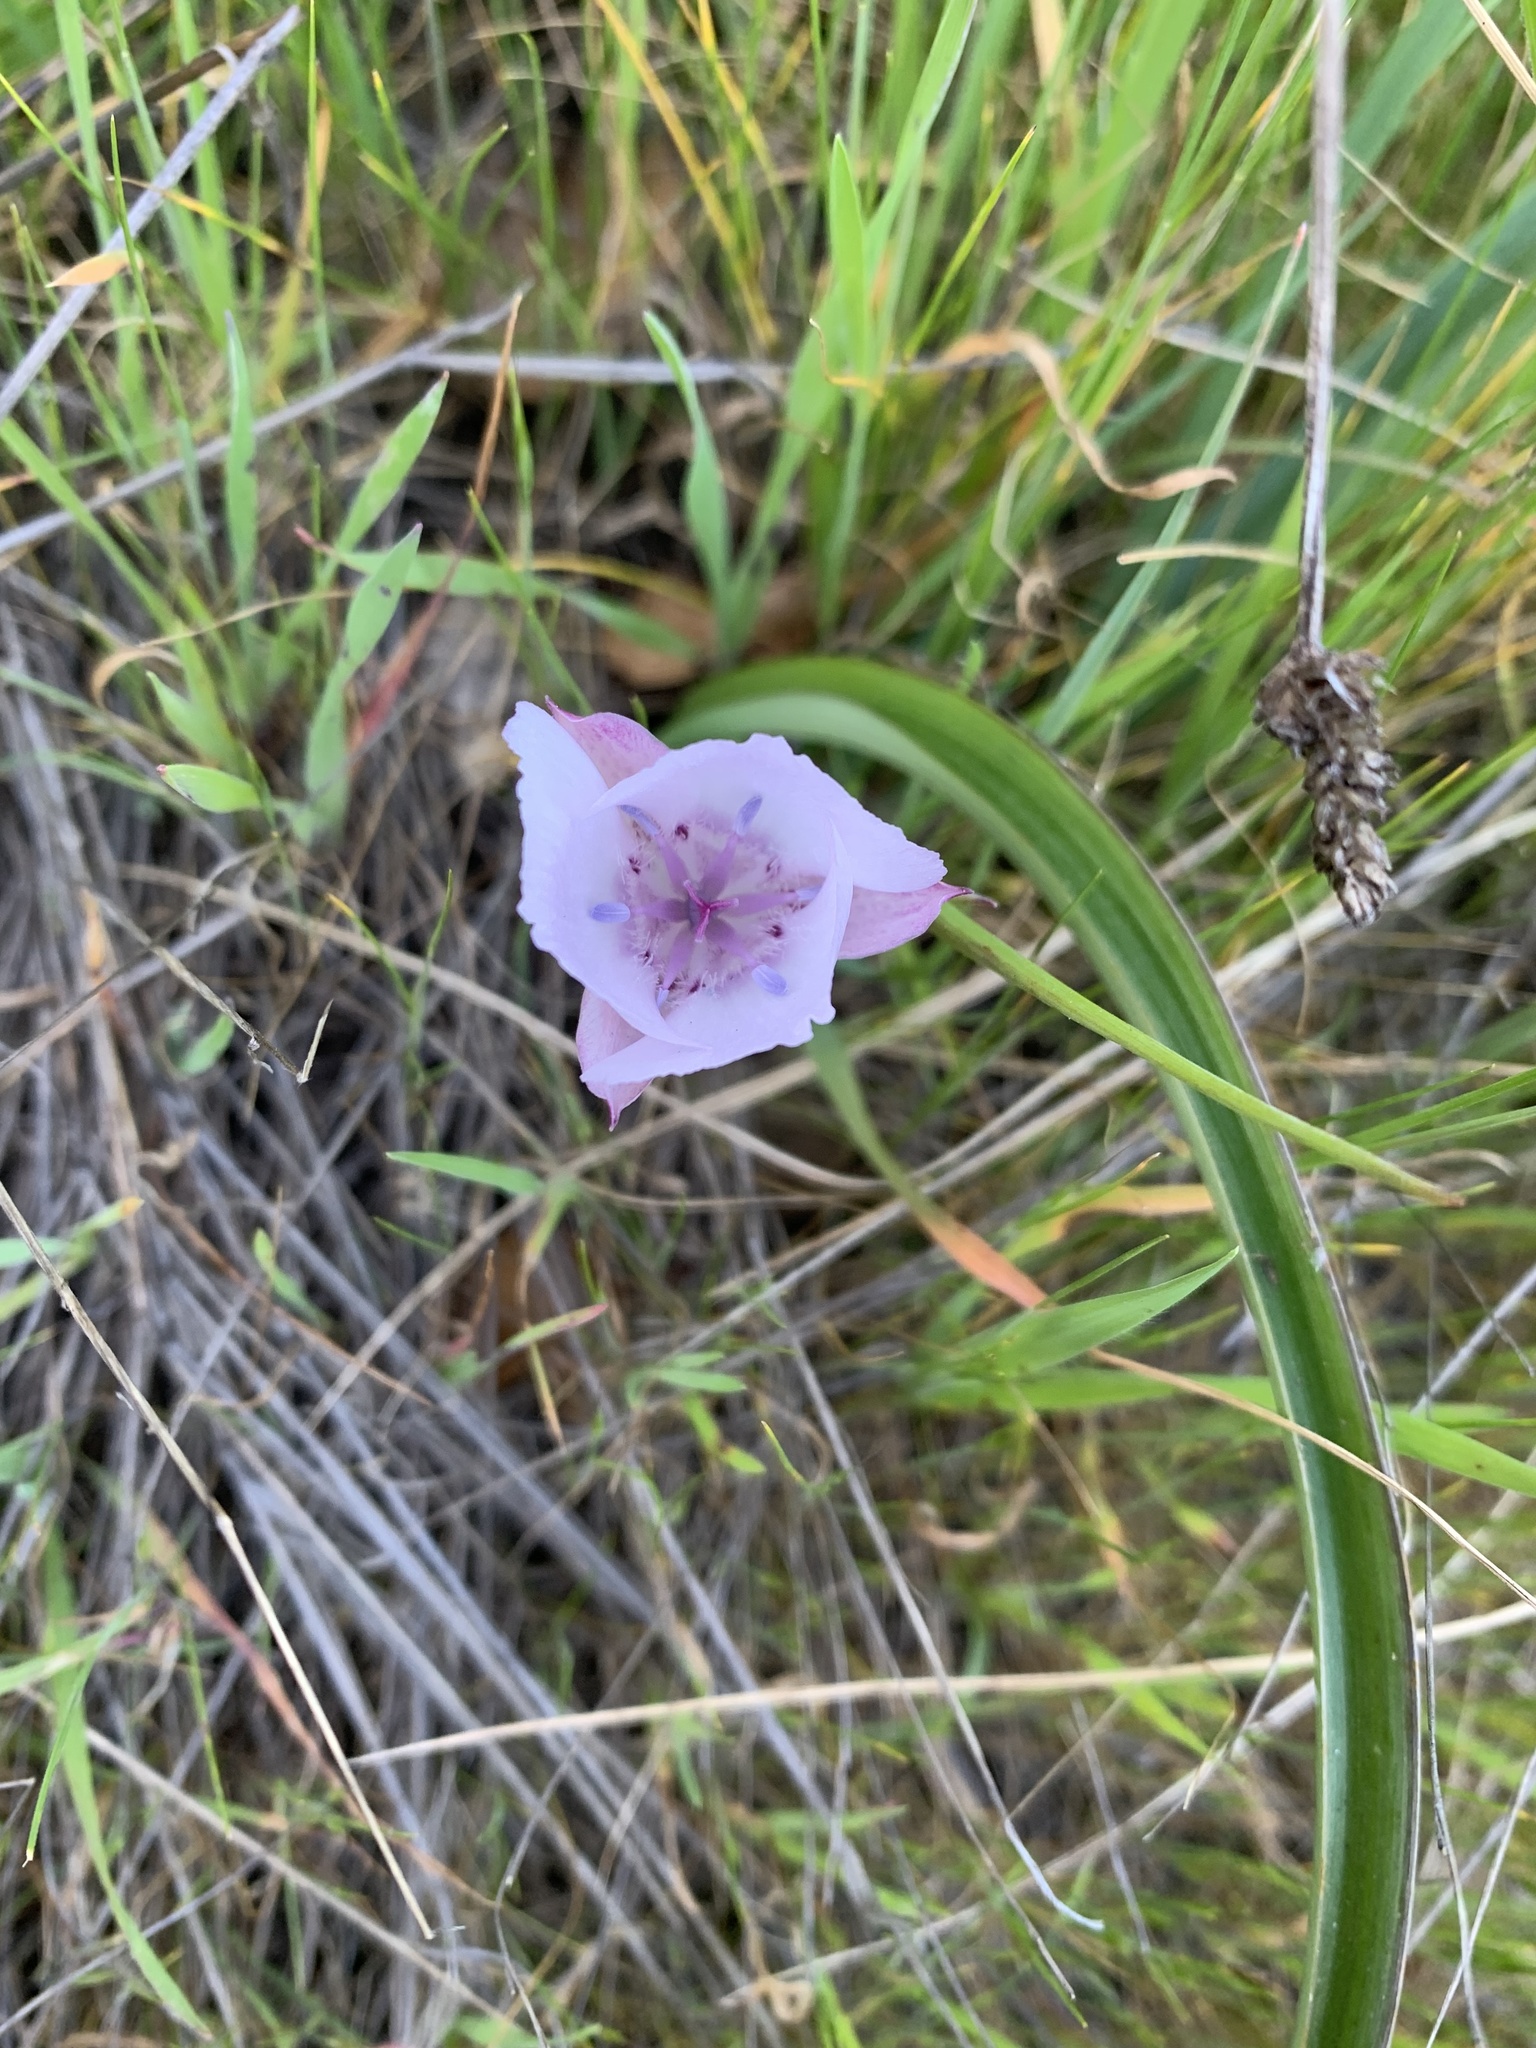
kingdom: Plantae
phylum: Tracheophyta
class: Liliopsida
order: Liliales
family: Liliaceae
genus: Calochortus
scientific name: Calochortus umbellatus
